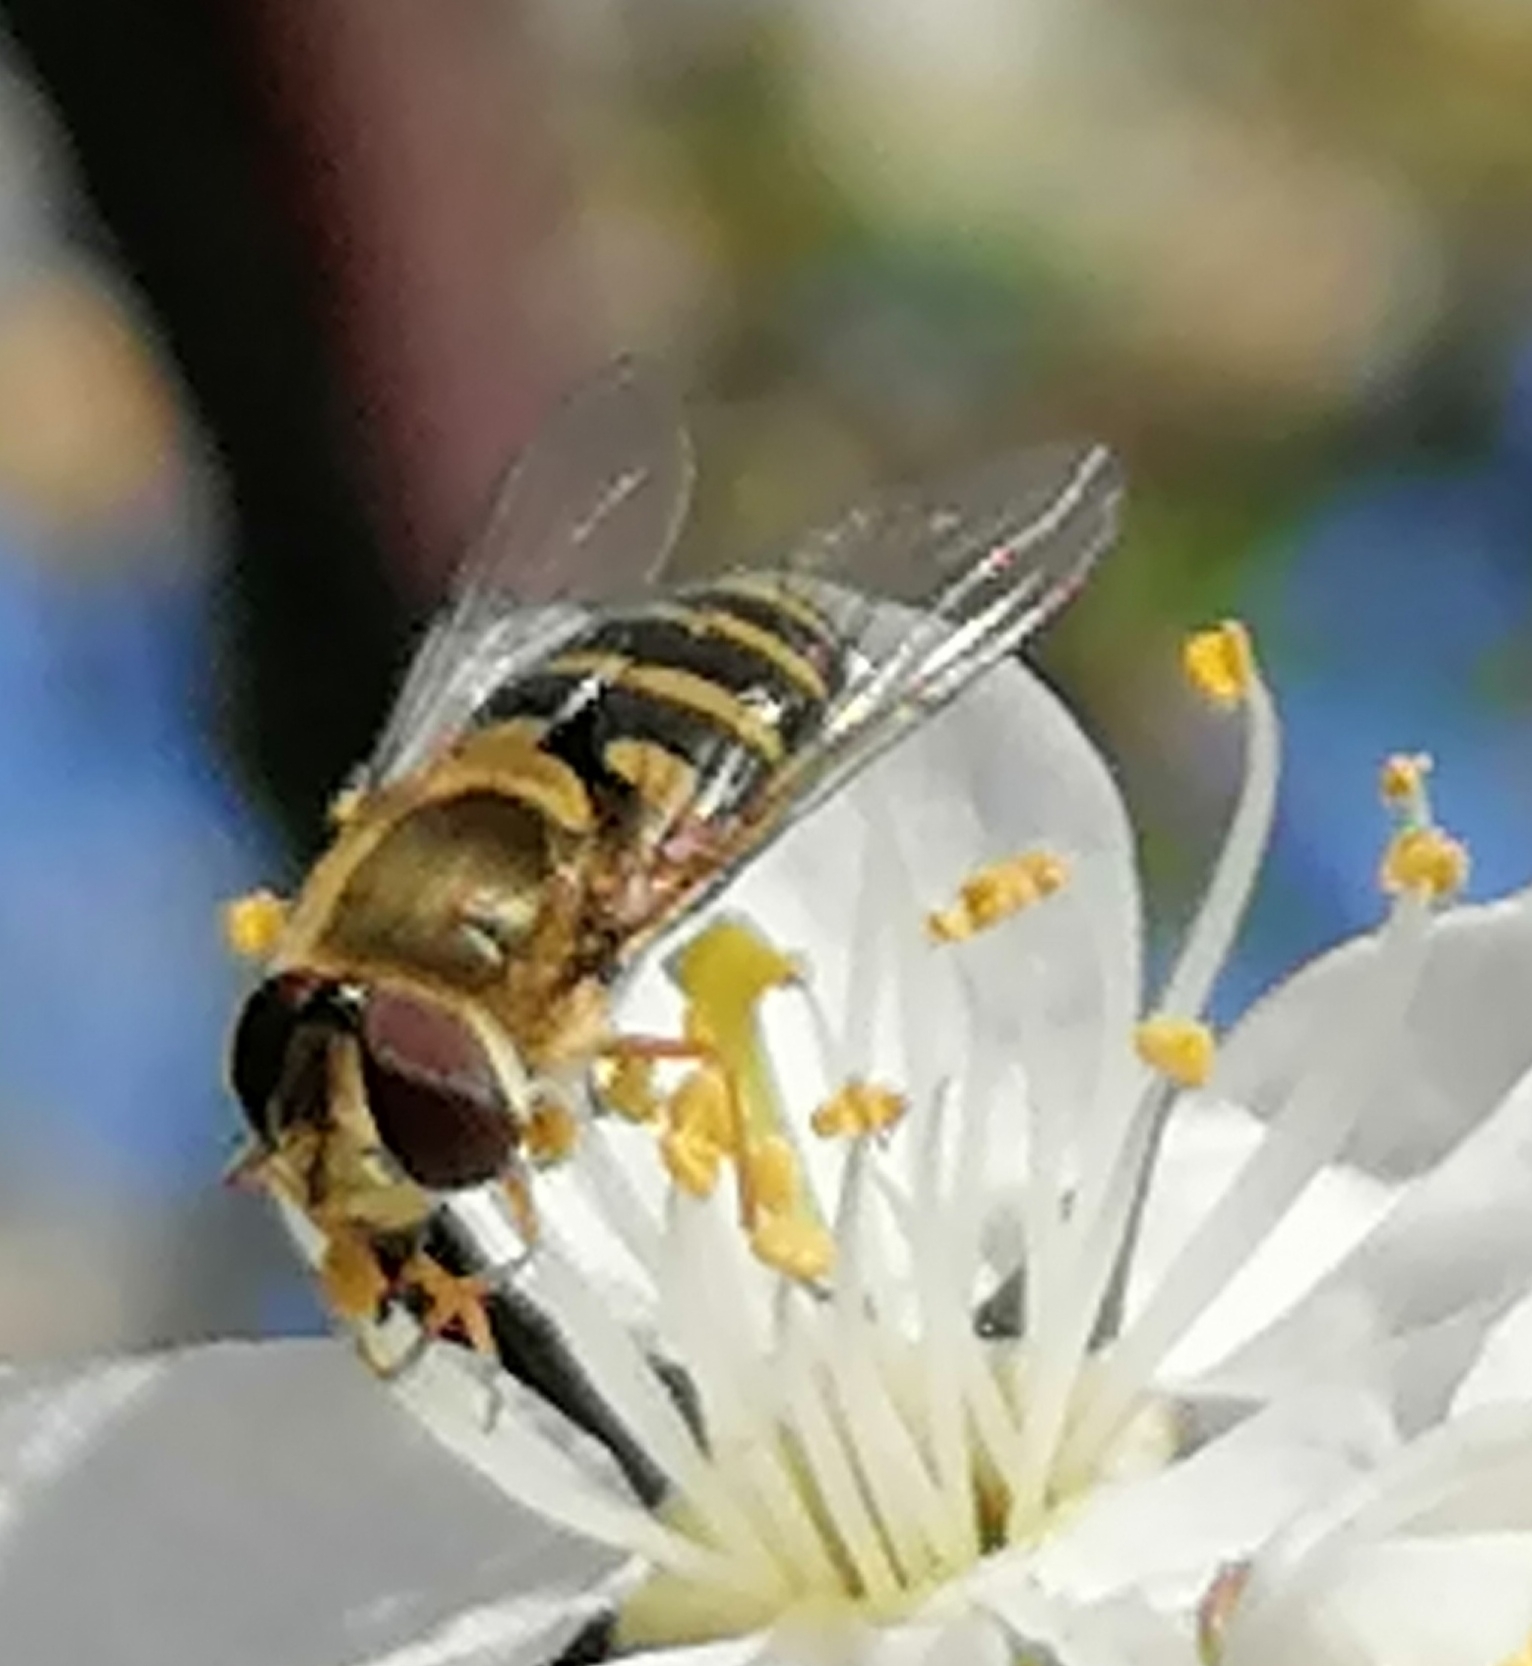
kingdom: Animalia
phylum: Arthropoda
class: Insecta
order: Diptera
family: Syrphidae
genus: Syrphus
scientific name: Syrphus
